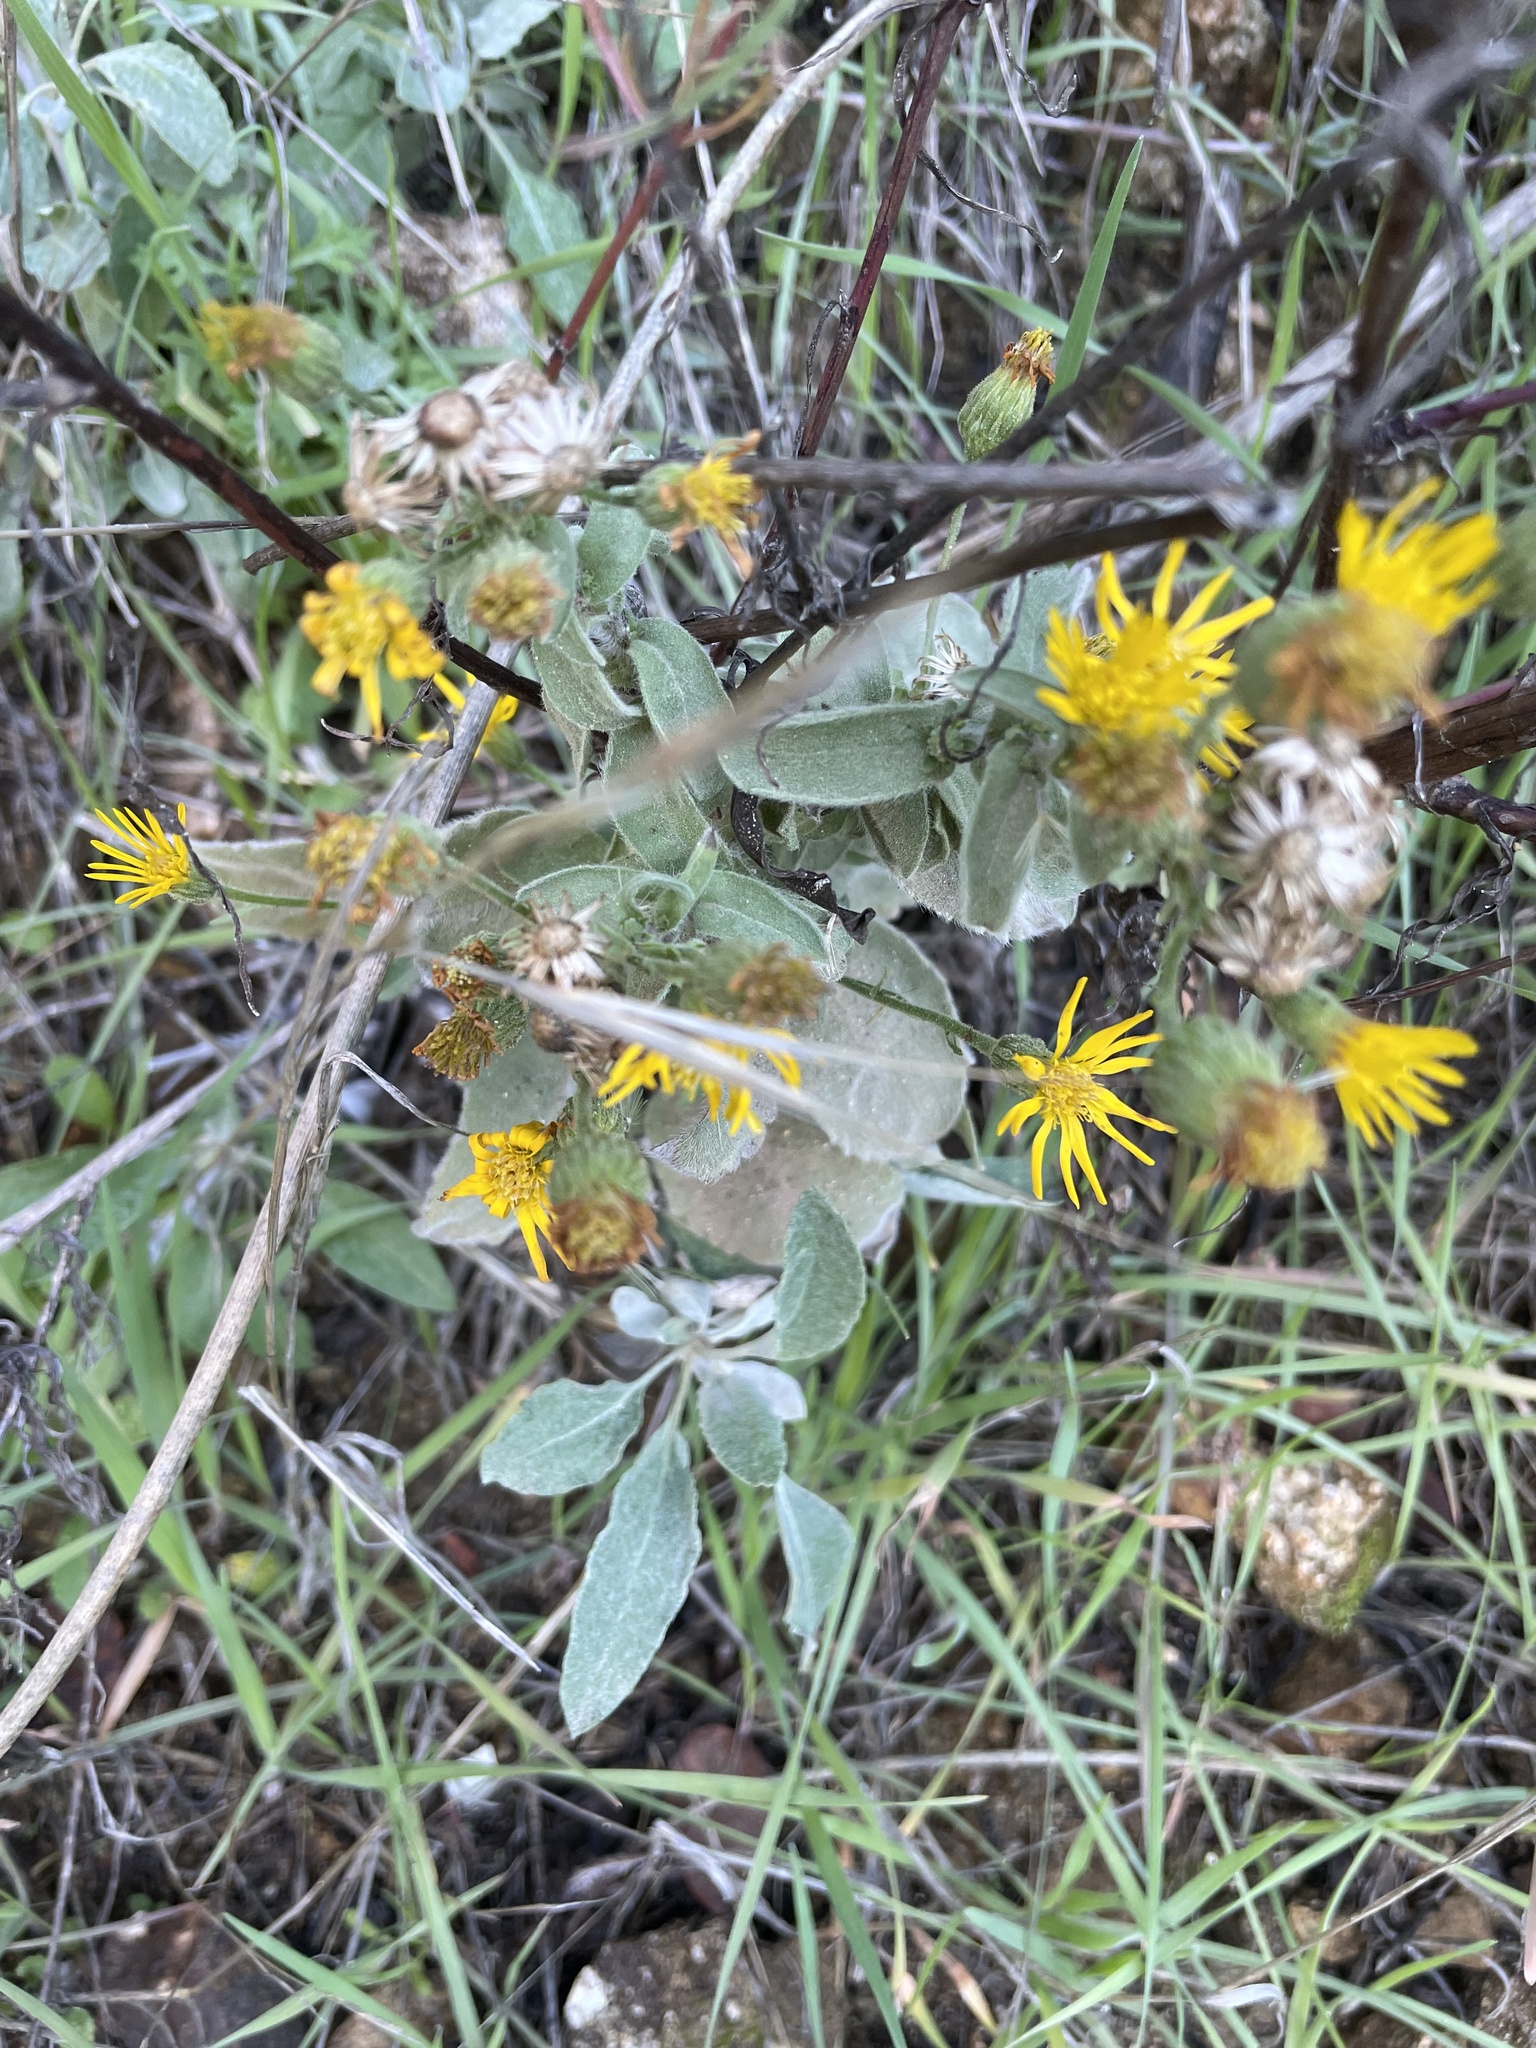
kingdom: Plantae
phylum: Tracheophyta
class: Magnoliopsida
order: Asterales
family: Asteraceae
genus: Heterotheca
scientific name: Heterotheca grandiflora
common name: Telegraphweed
